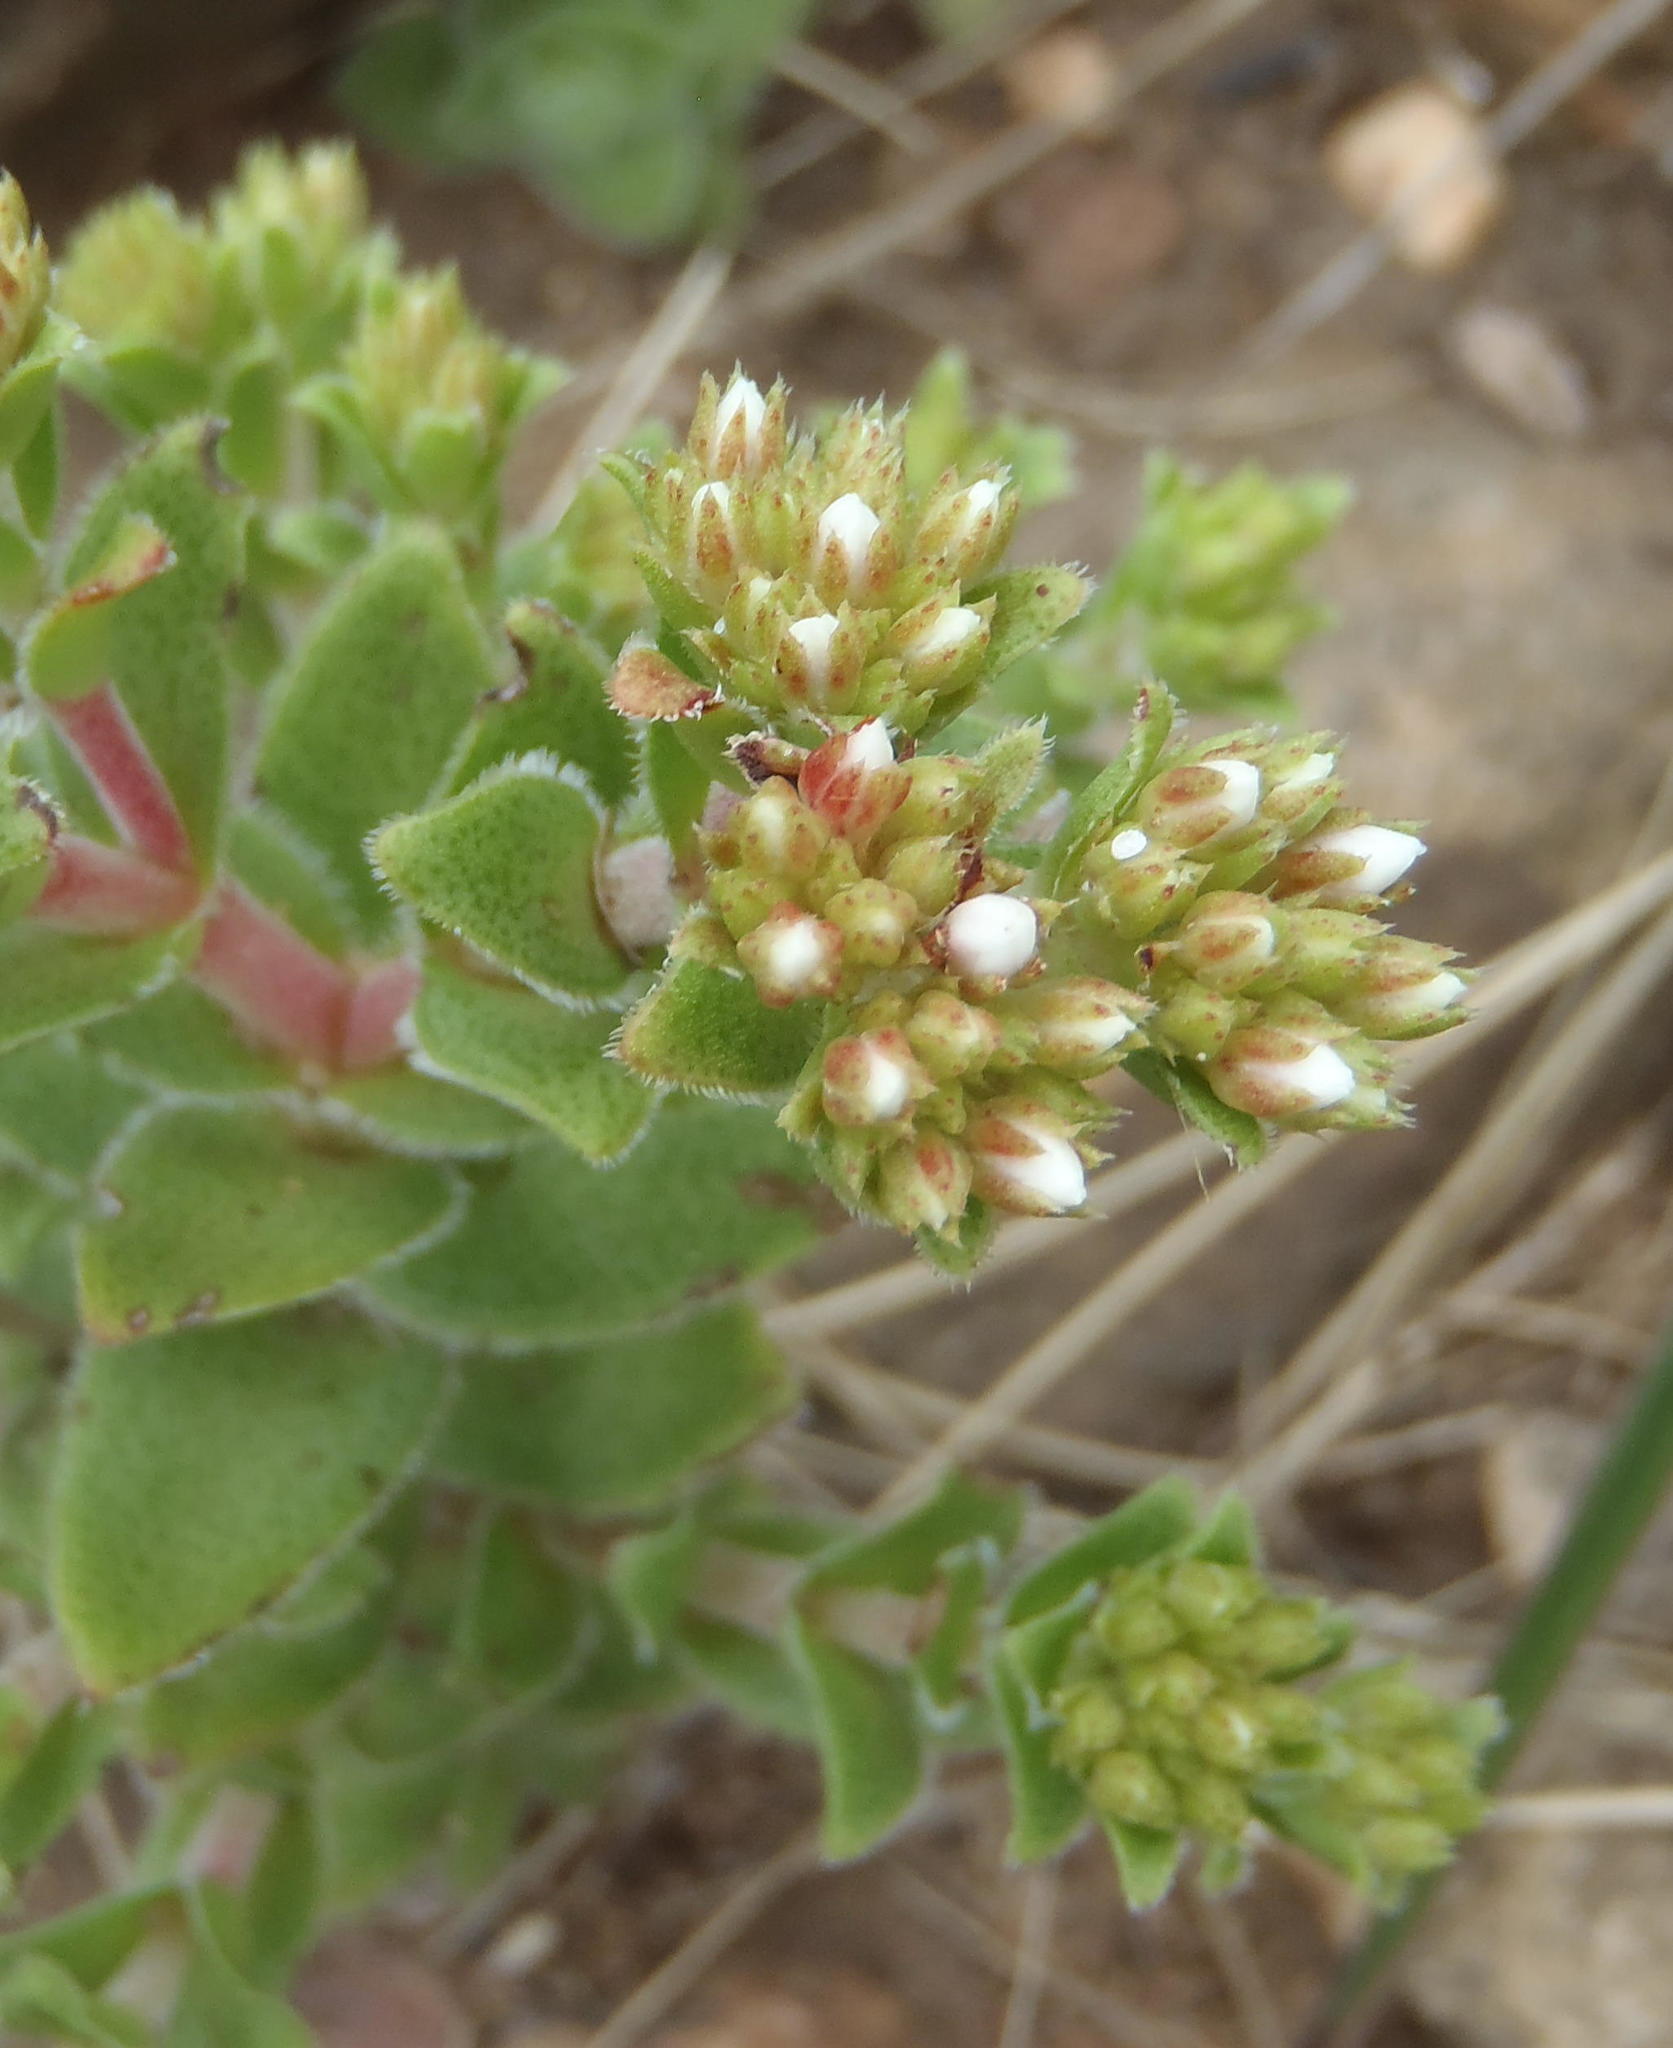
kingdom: Plantae
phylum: Tracheophyta
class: Magnoliopsida
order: Saxifragales
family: Crassulaceae
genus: Crassula
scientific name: Crassula setulosa
